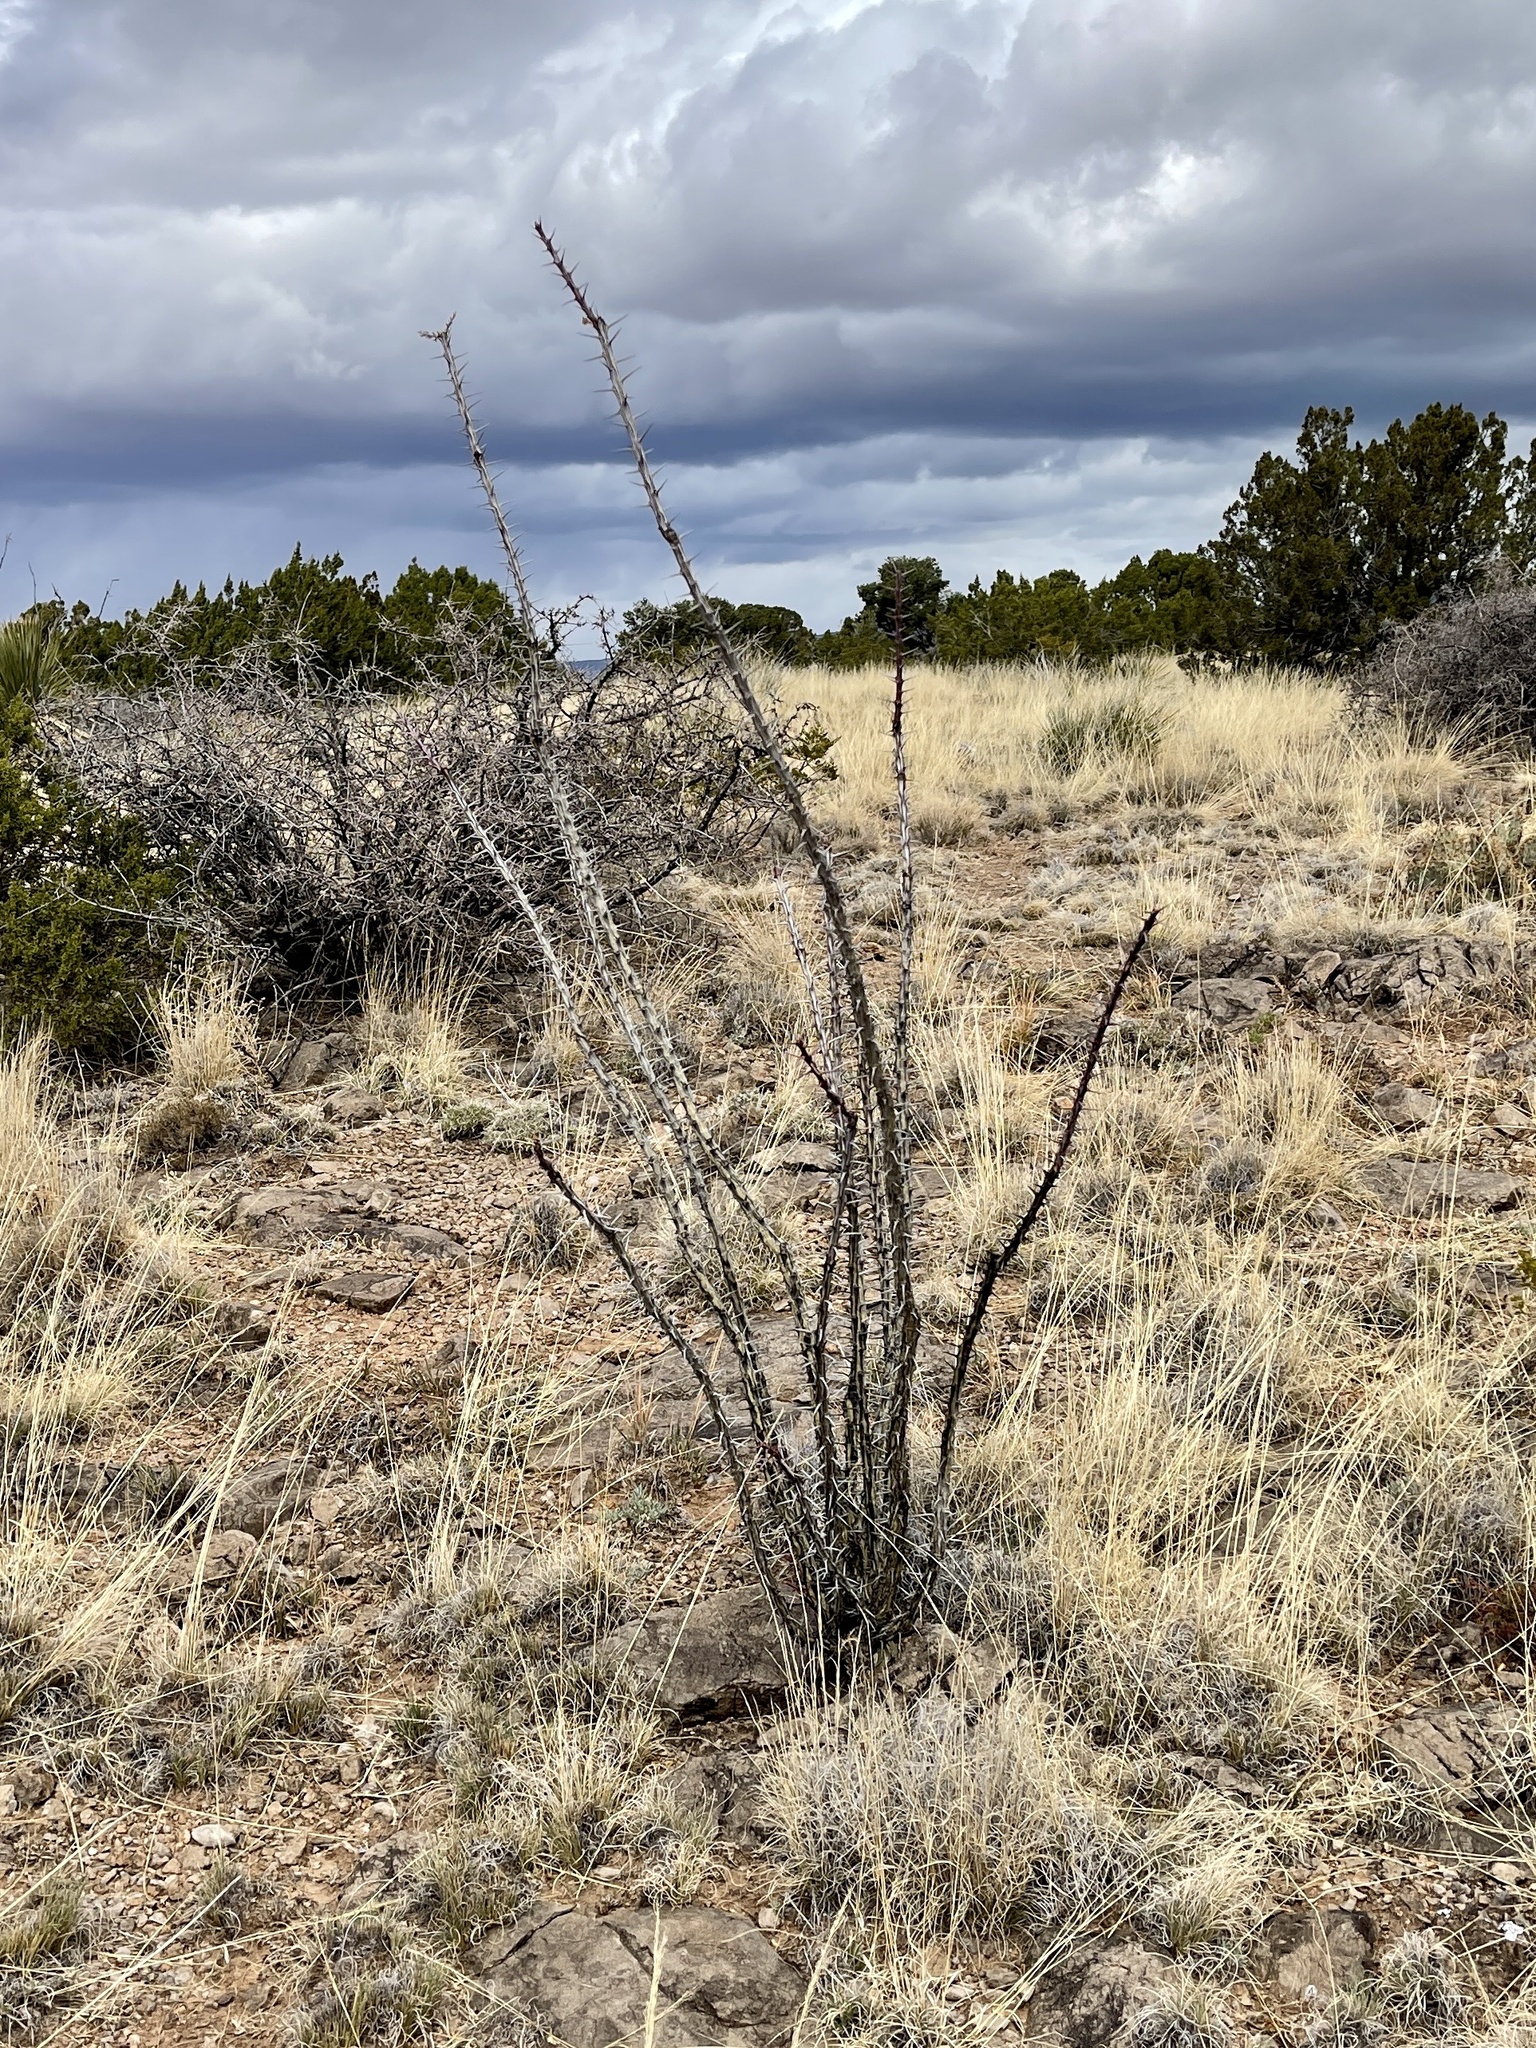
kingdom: Plantae
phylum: Tracheophyta
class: Magnoliopsida
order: Ericales
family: Fouquieriaceae
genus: Fouquieria
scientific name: Fouquieria splendens
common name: Vine-cactus
